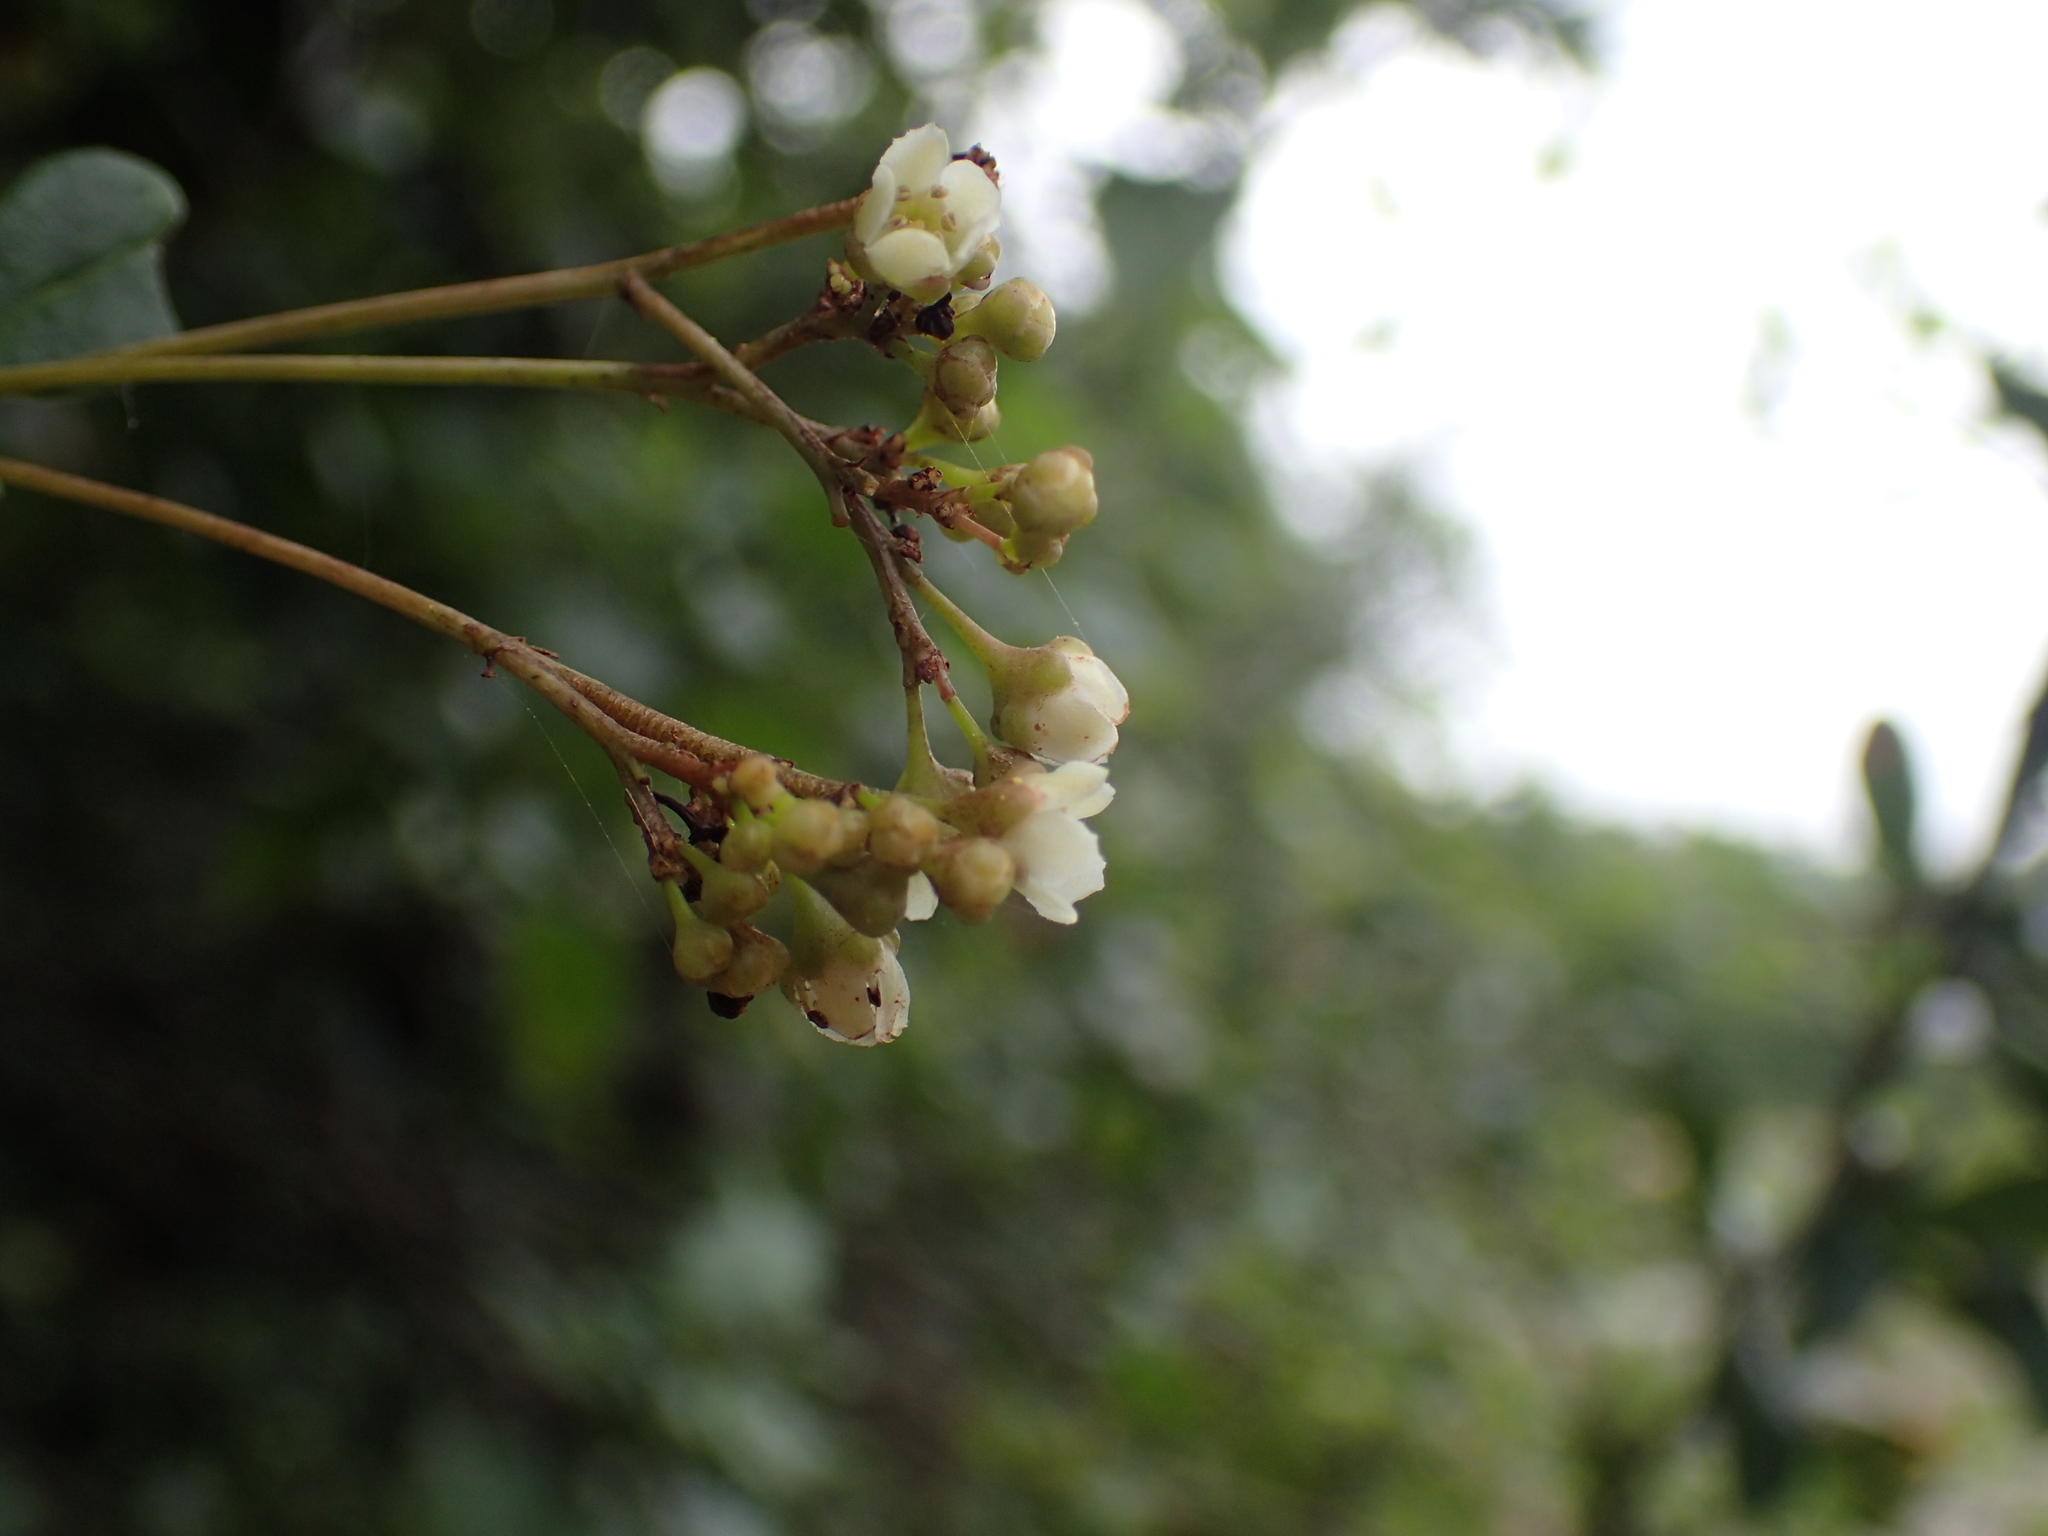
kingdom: Plantae
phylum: Tracheophyta
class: Magnoliopsida
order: Celastrales
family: Celastraceae
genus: Putterlickia
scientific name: Putterlickia verrucosa
